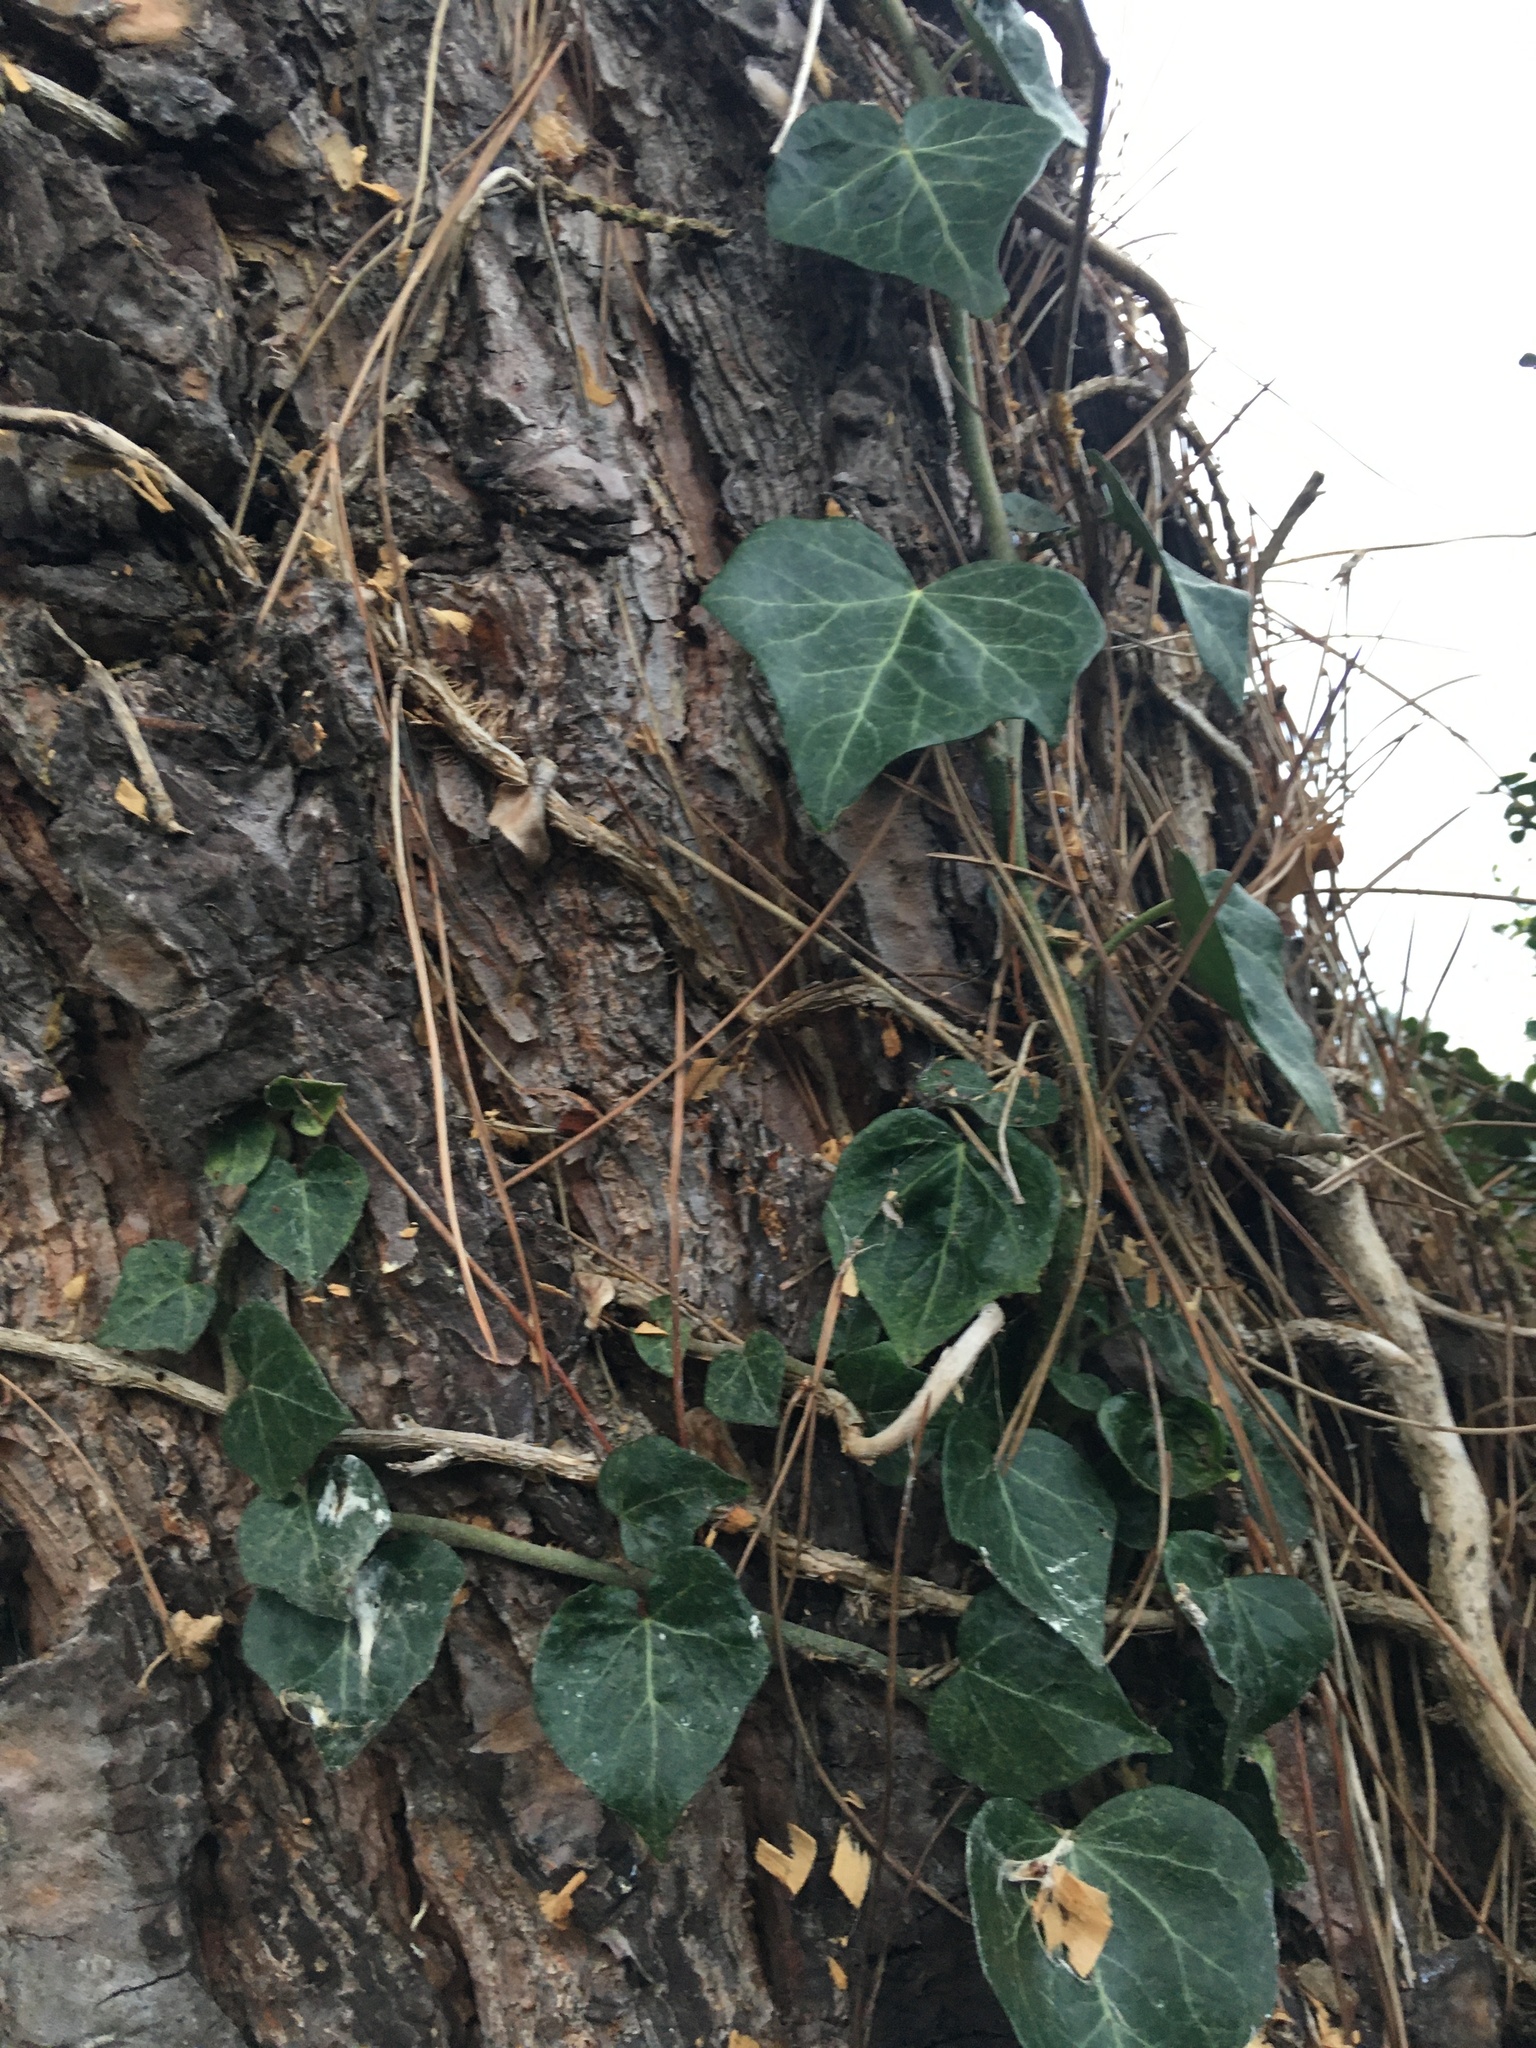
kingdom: Plantae
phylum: Tracheophyta
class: Magnoliopsida
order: Apiales
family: Araliaceae
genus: Hedera
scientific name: Hedera helix
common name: Ivy
